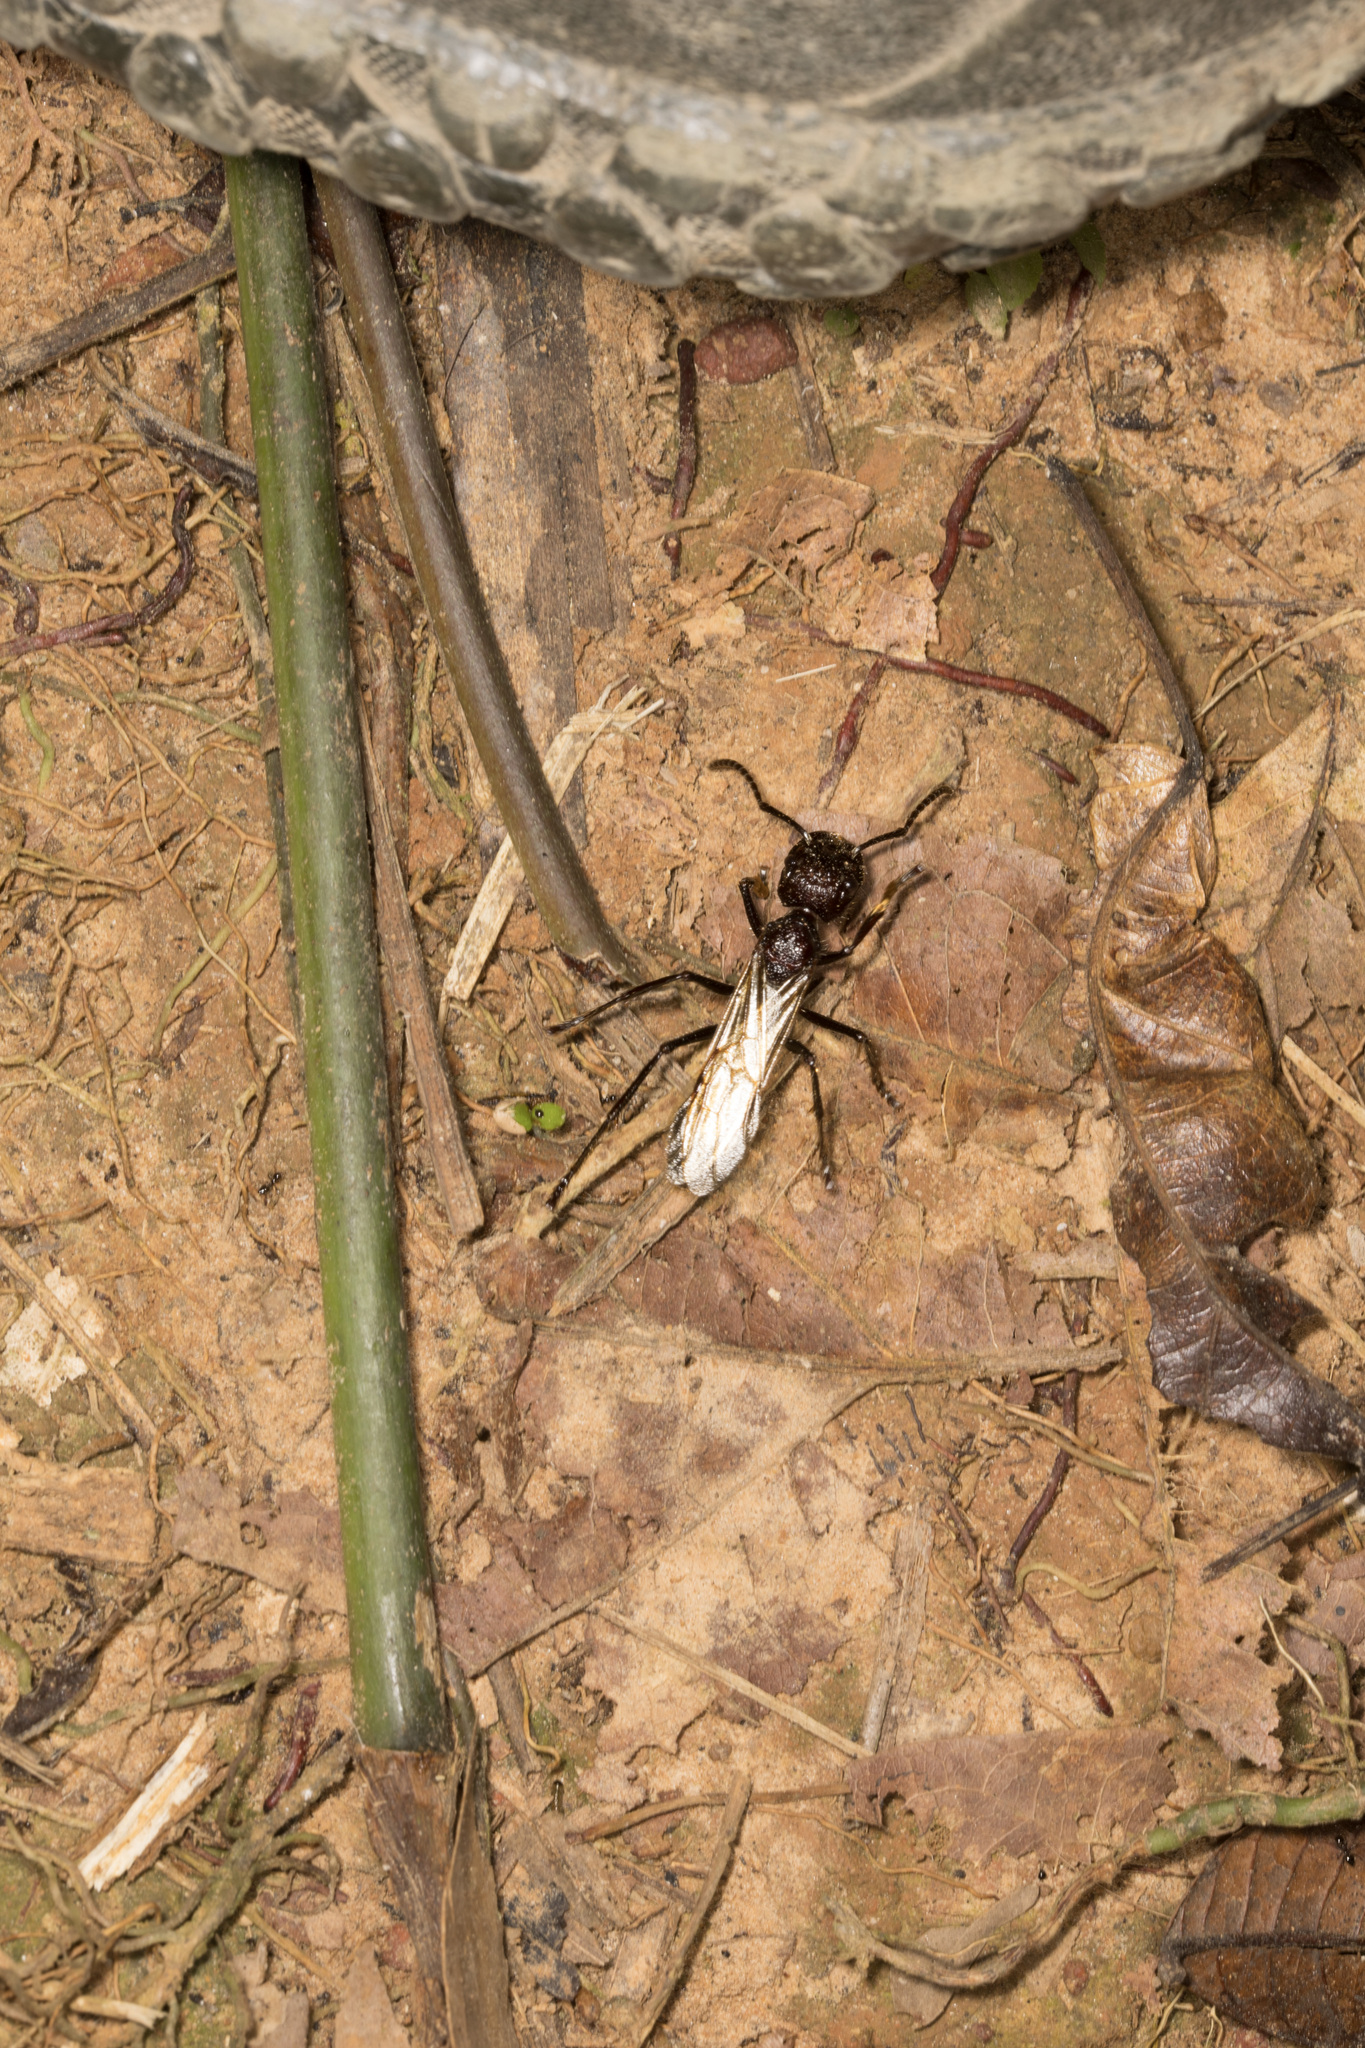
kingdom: Animalia
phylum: Arthropoda
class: Insecta
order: Hymenoptera
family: Formicidae
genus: Paraponera
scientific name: Paraponera clavata
